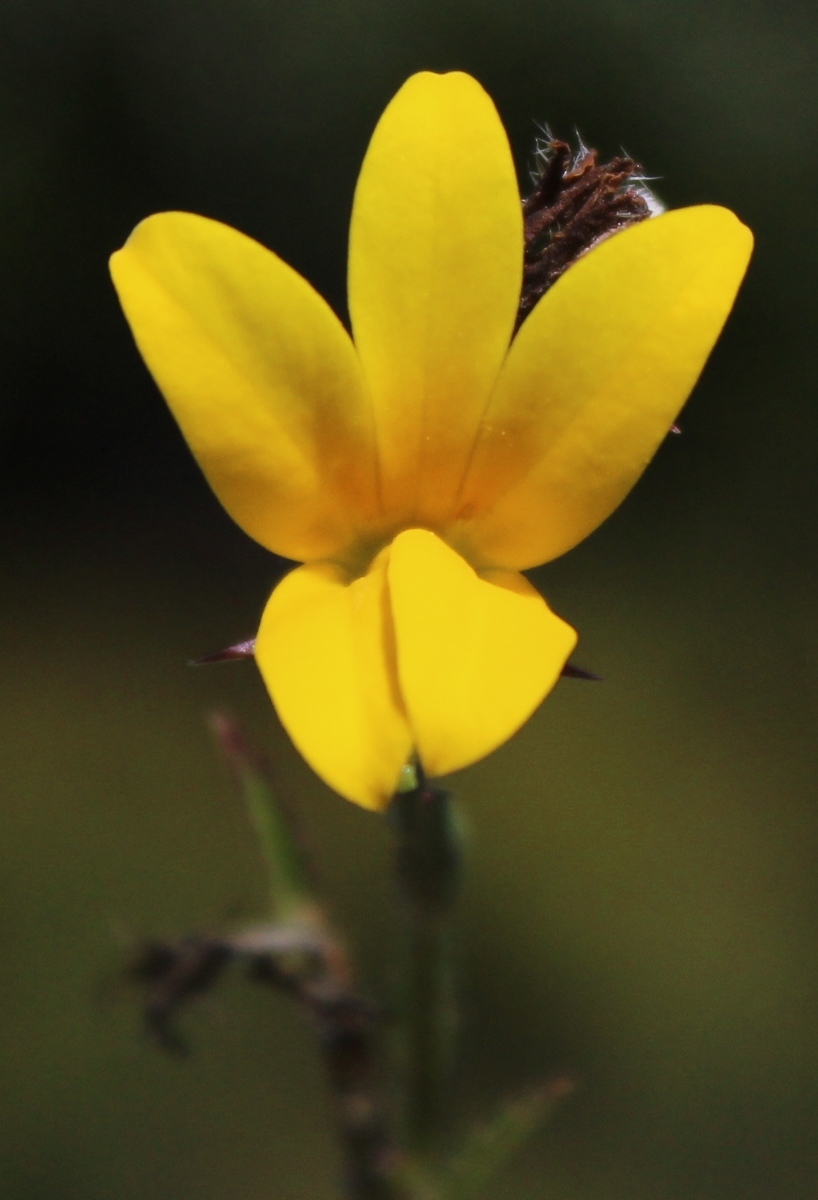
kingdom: Plantae
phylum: Tracheophyta
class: Magnoliopsida
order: Asterales
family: Campanulaceae
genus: Monopsis
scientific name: Monopsis lutea
